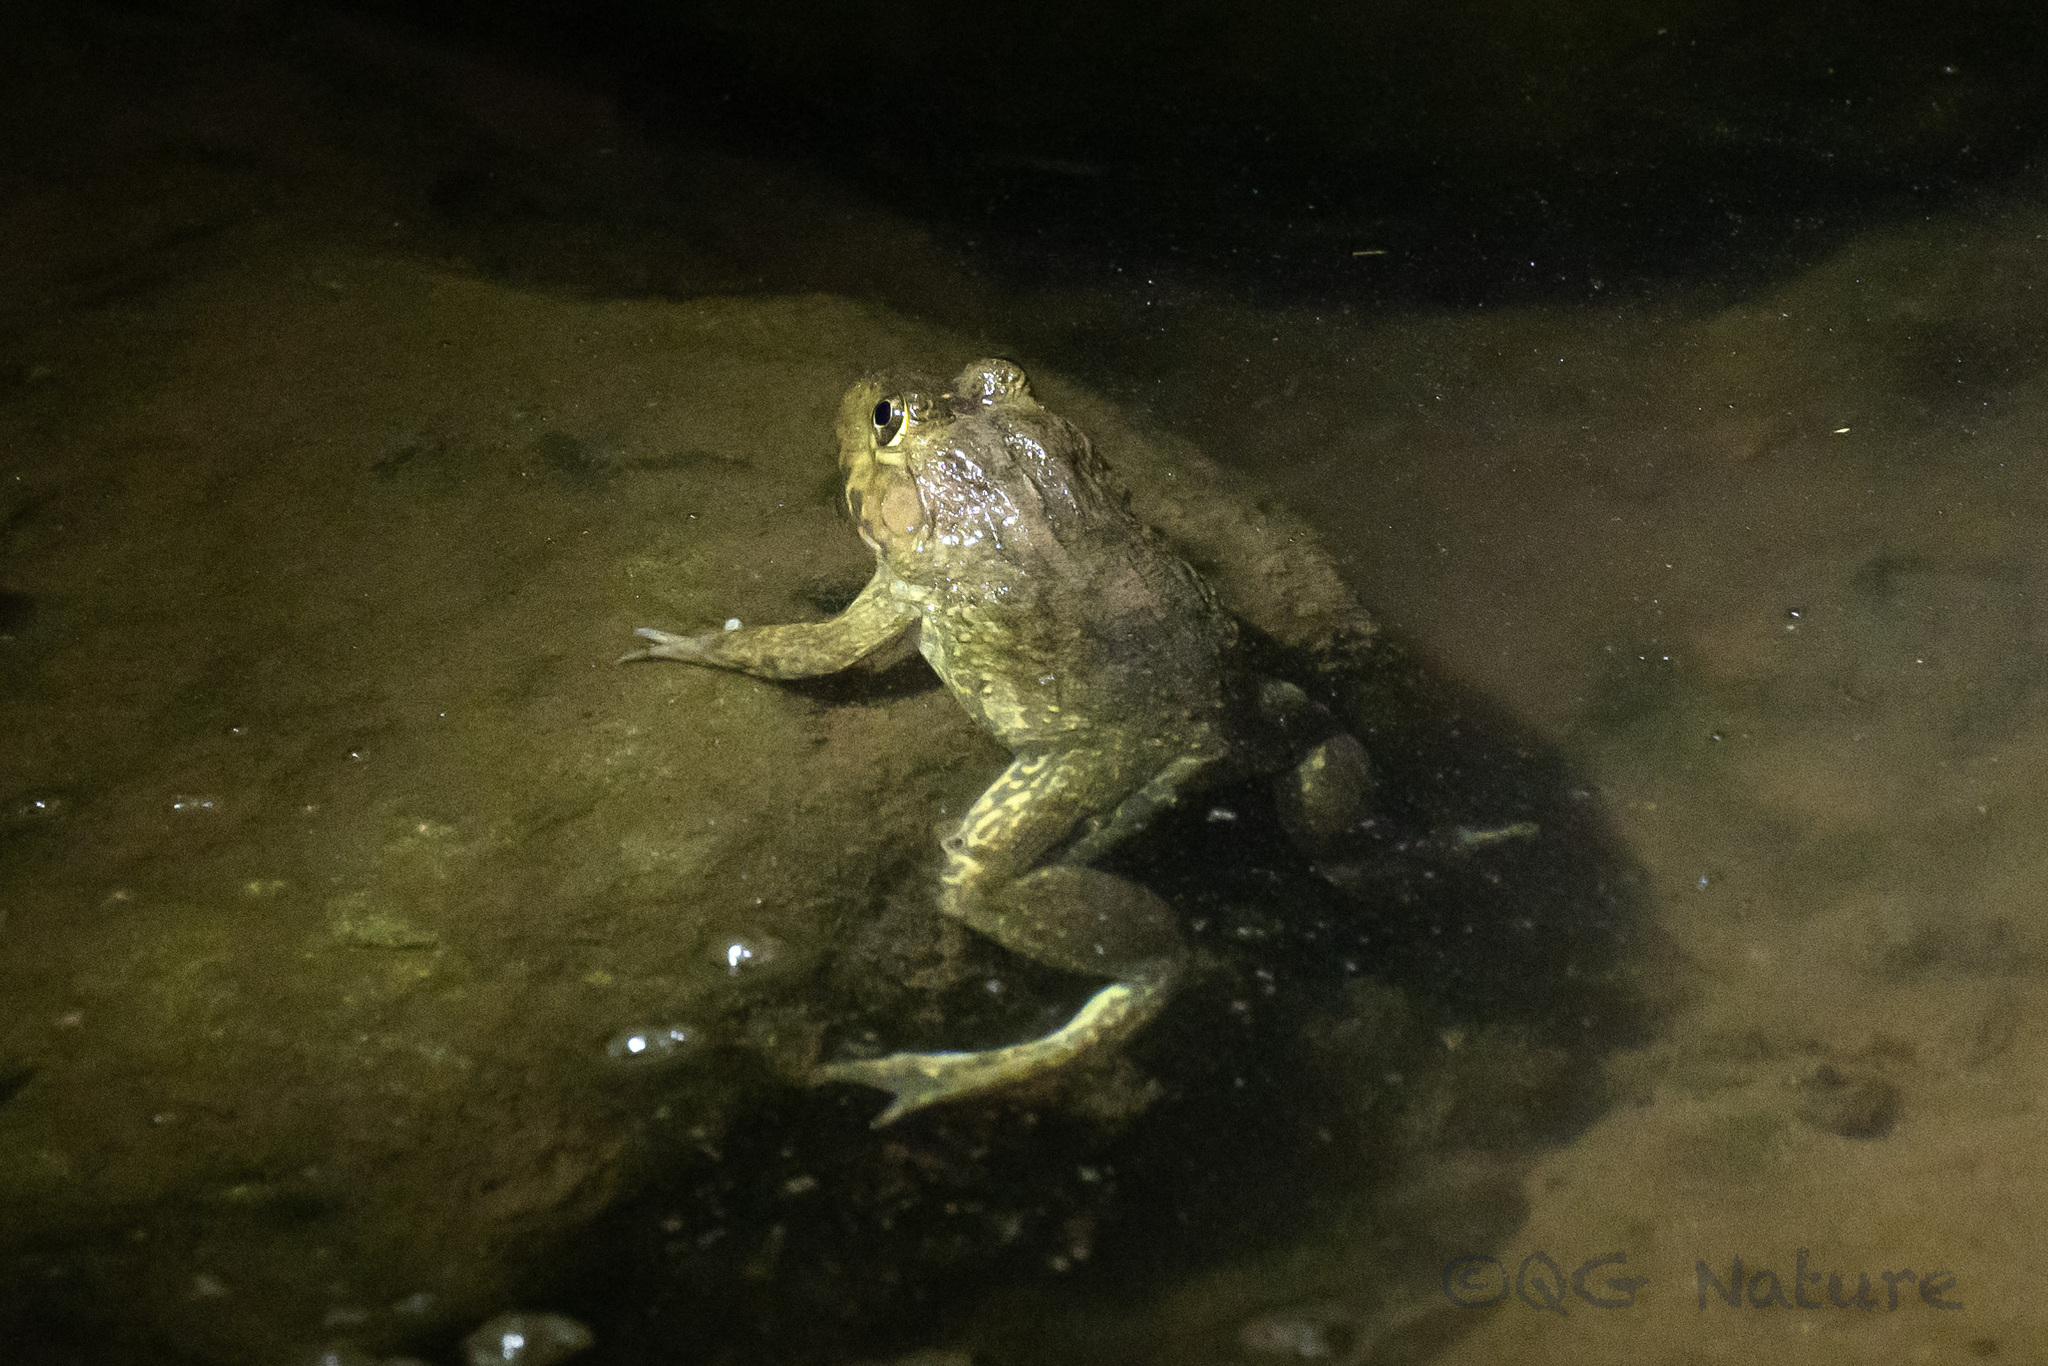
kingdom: Animalia
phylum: Chordata
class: Amphibia
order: Anura
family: Dicroglossidae
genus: Hoplobatrachus
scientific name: Hoplobatrachus rugulosus
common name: Chinese edible frog
